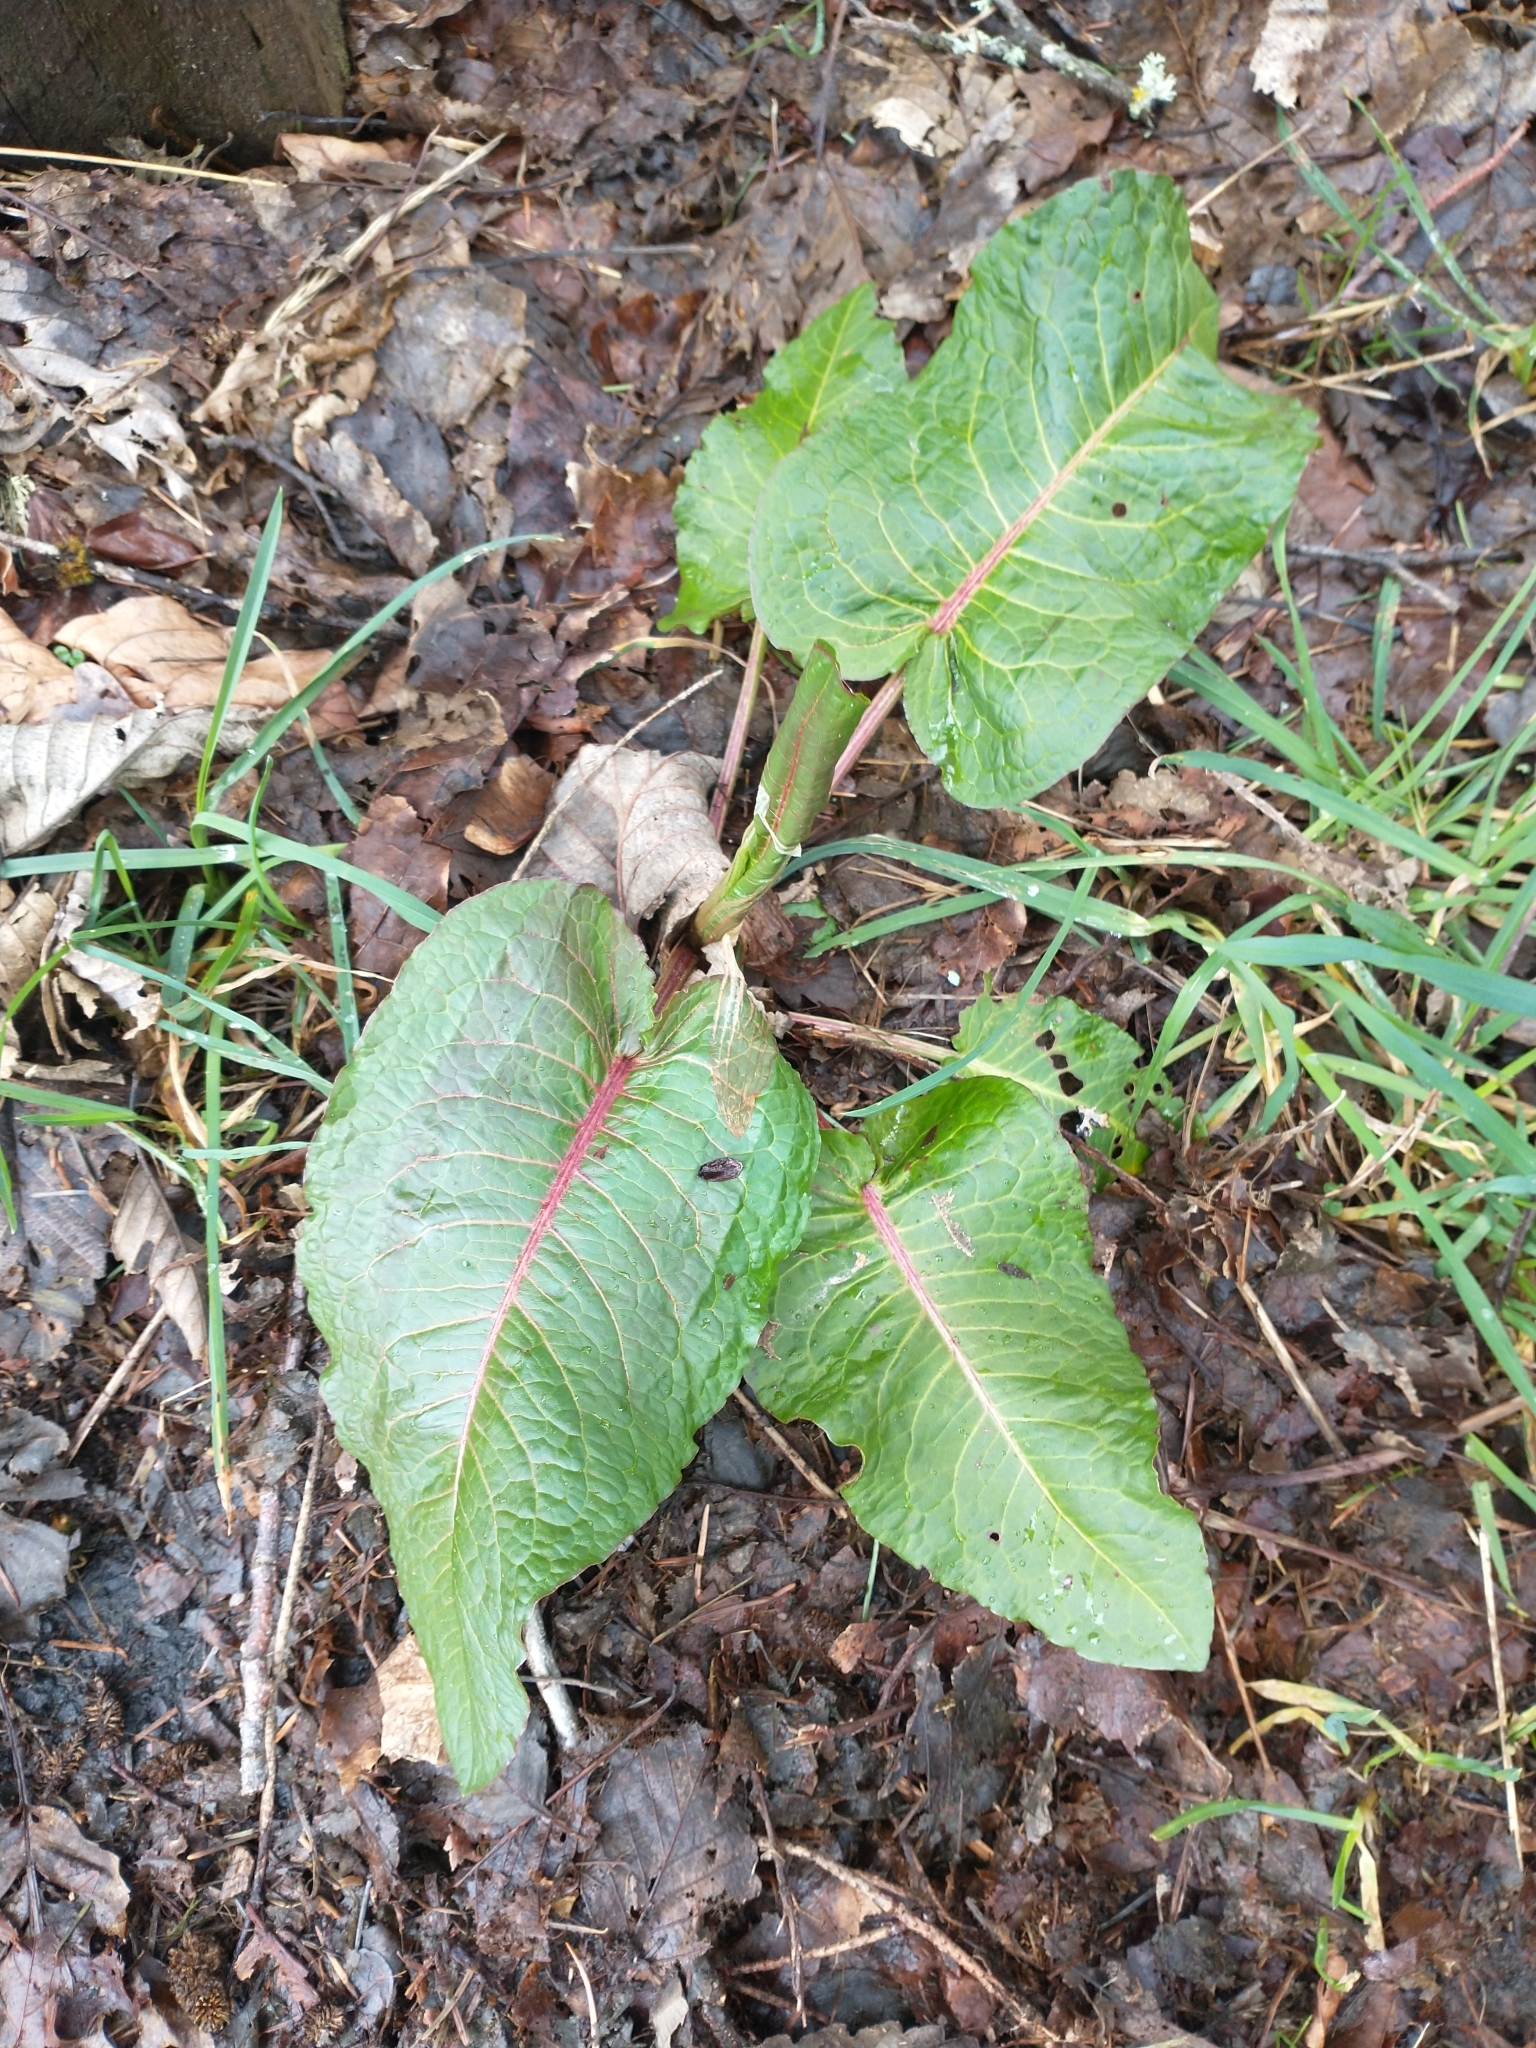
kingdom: Plantae
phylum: Tracheophyta
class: Magnoliopsida
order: Caryophyllales
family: Polygonaceae
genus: Rumex
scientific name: Rumex obtusifolius
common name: Bitter dock
